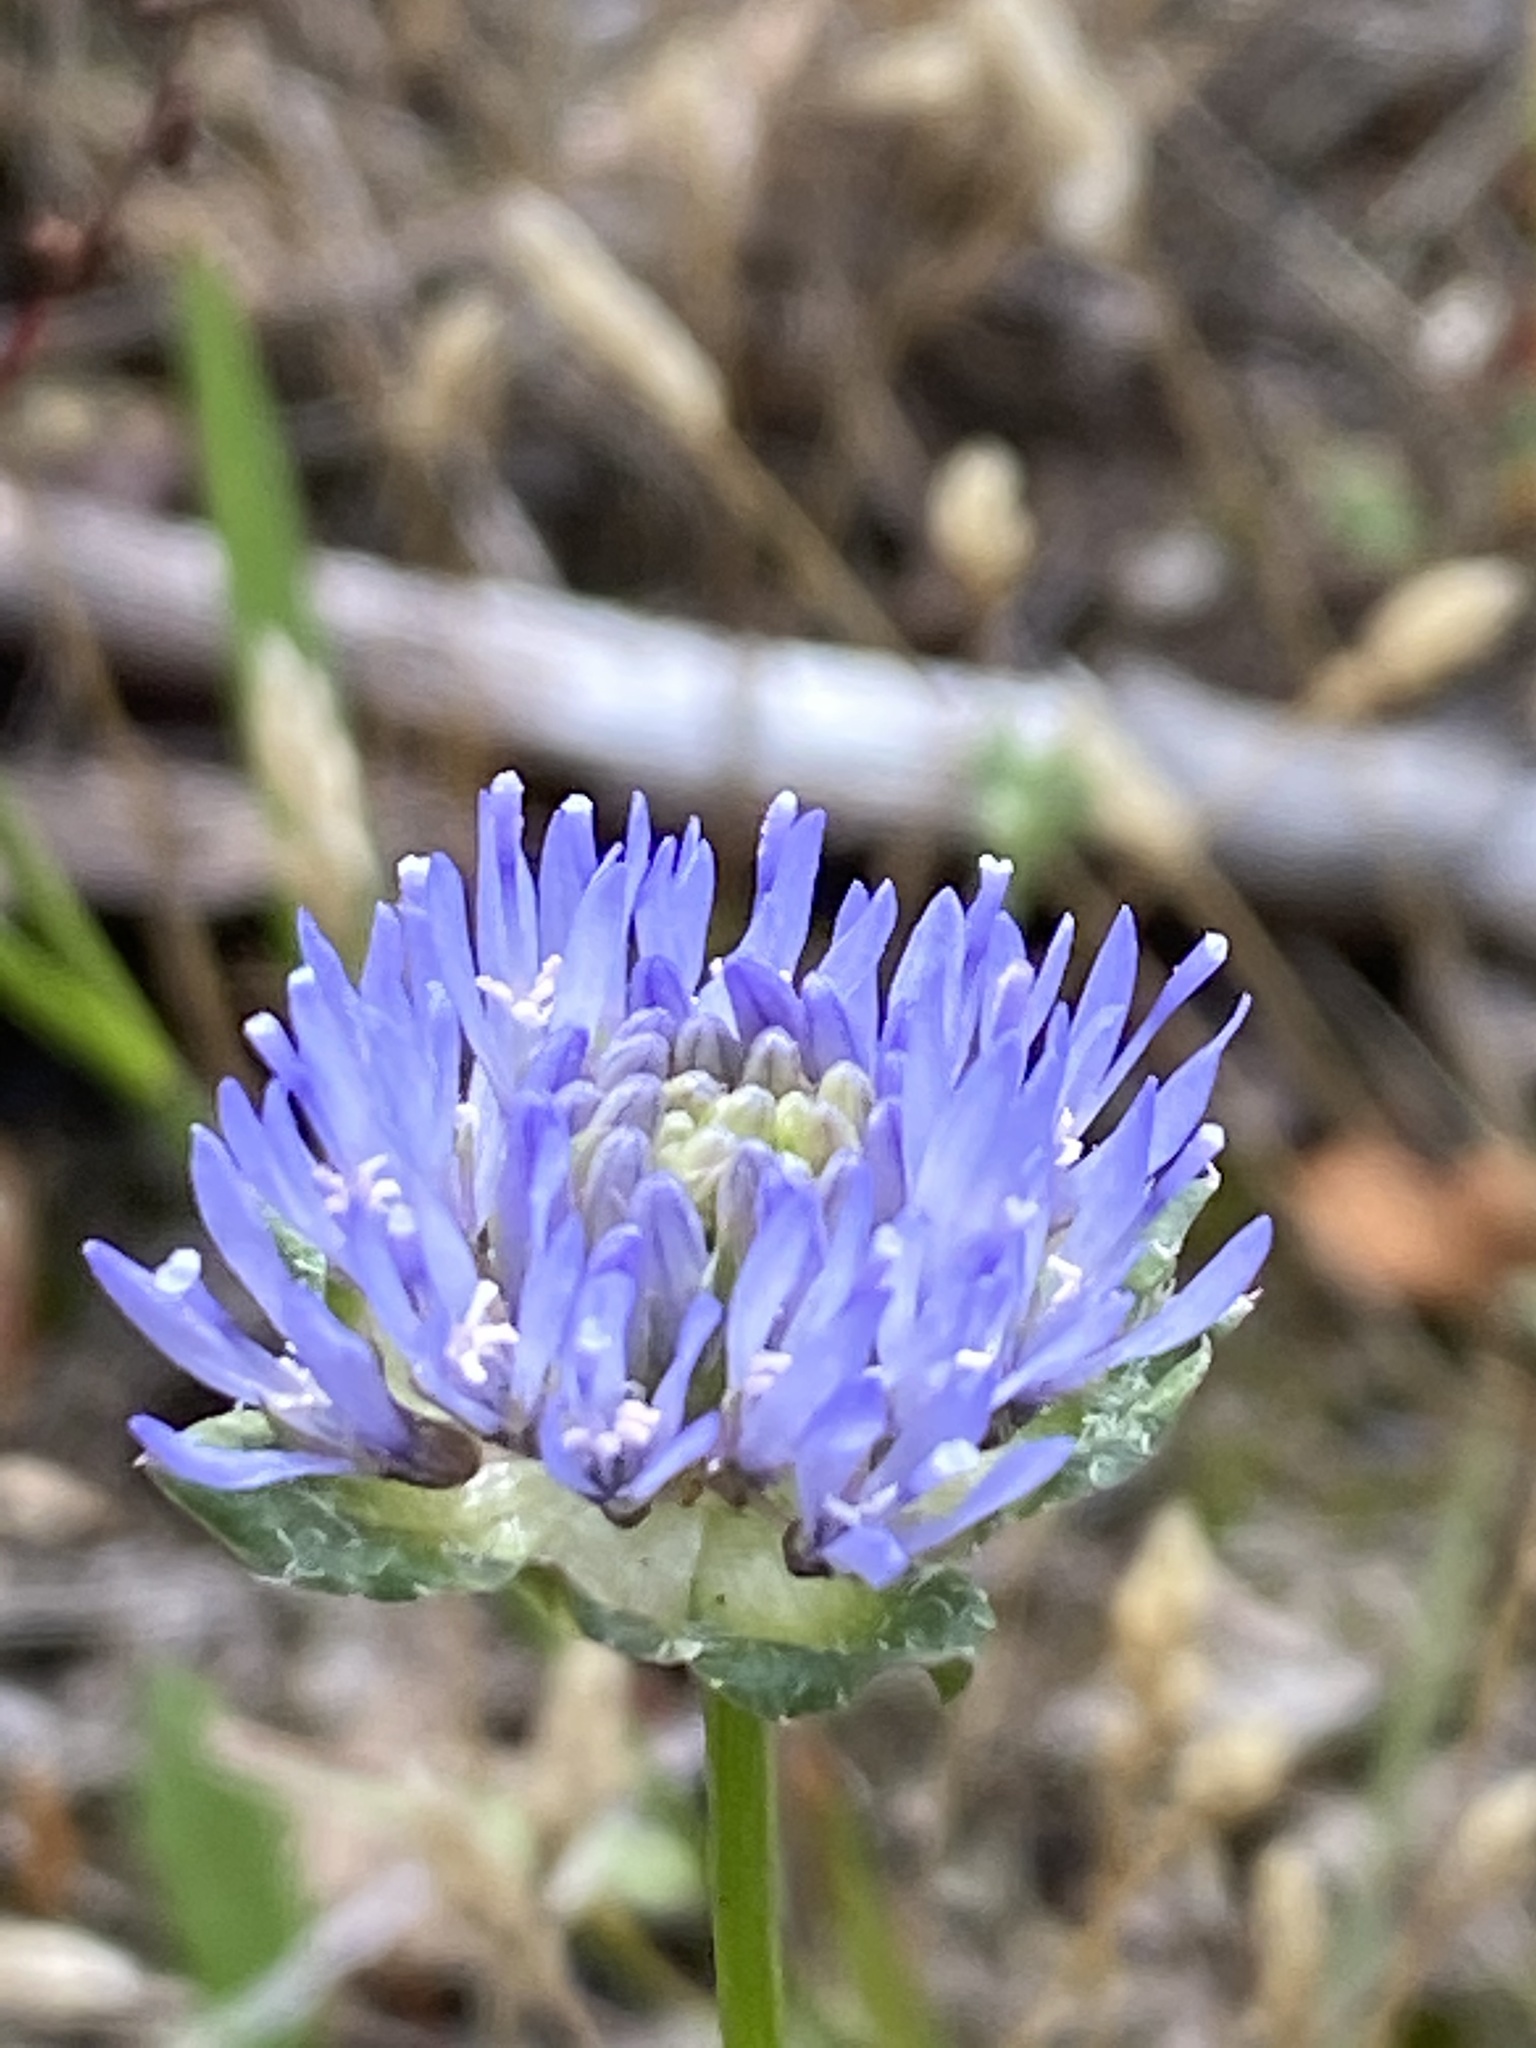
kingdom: Plantae
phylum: Tracheophyta
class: Magnoliopsida
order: Asterales
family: Campanulaceae
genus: Jasione
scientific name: Jasione montana
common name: Sheep's-bit
